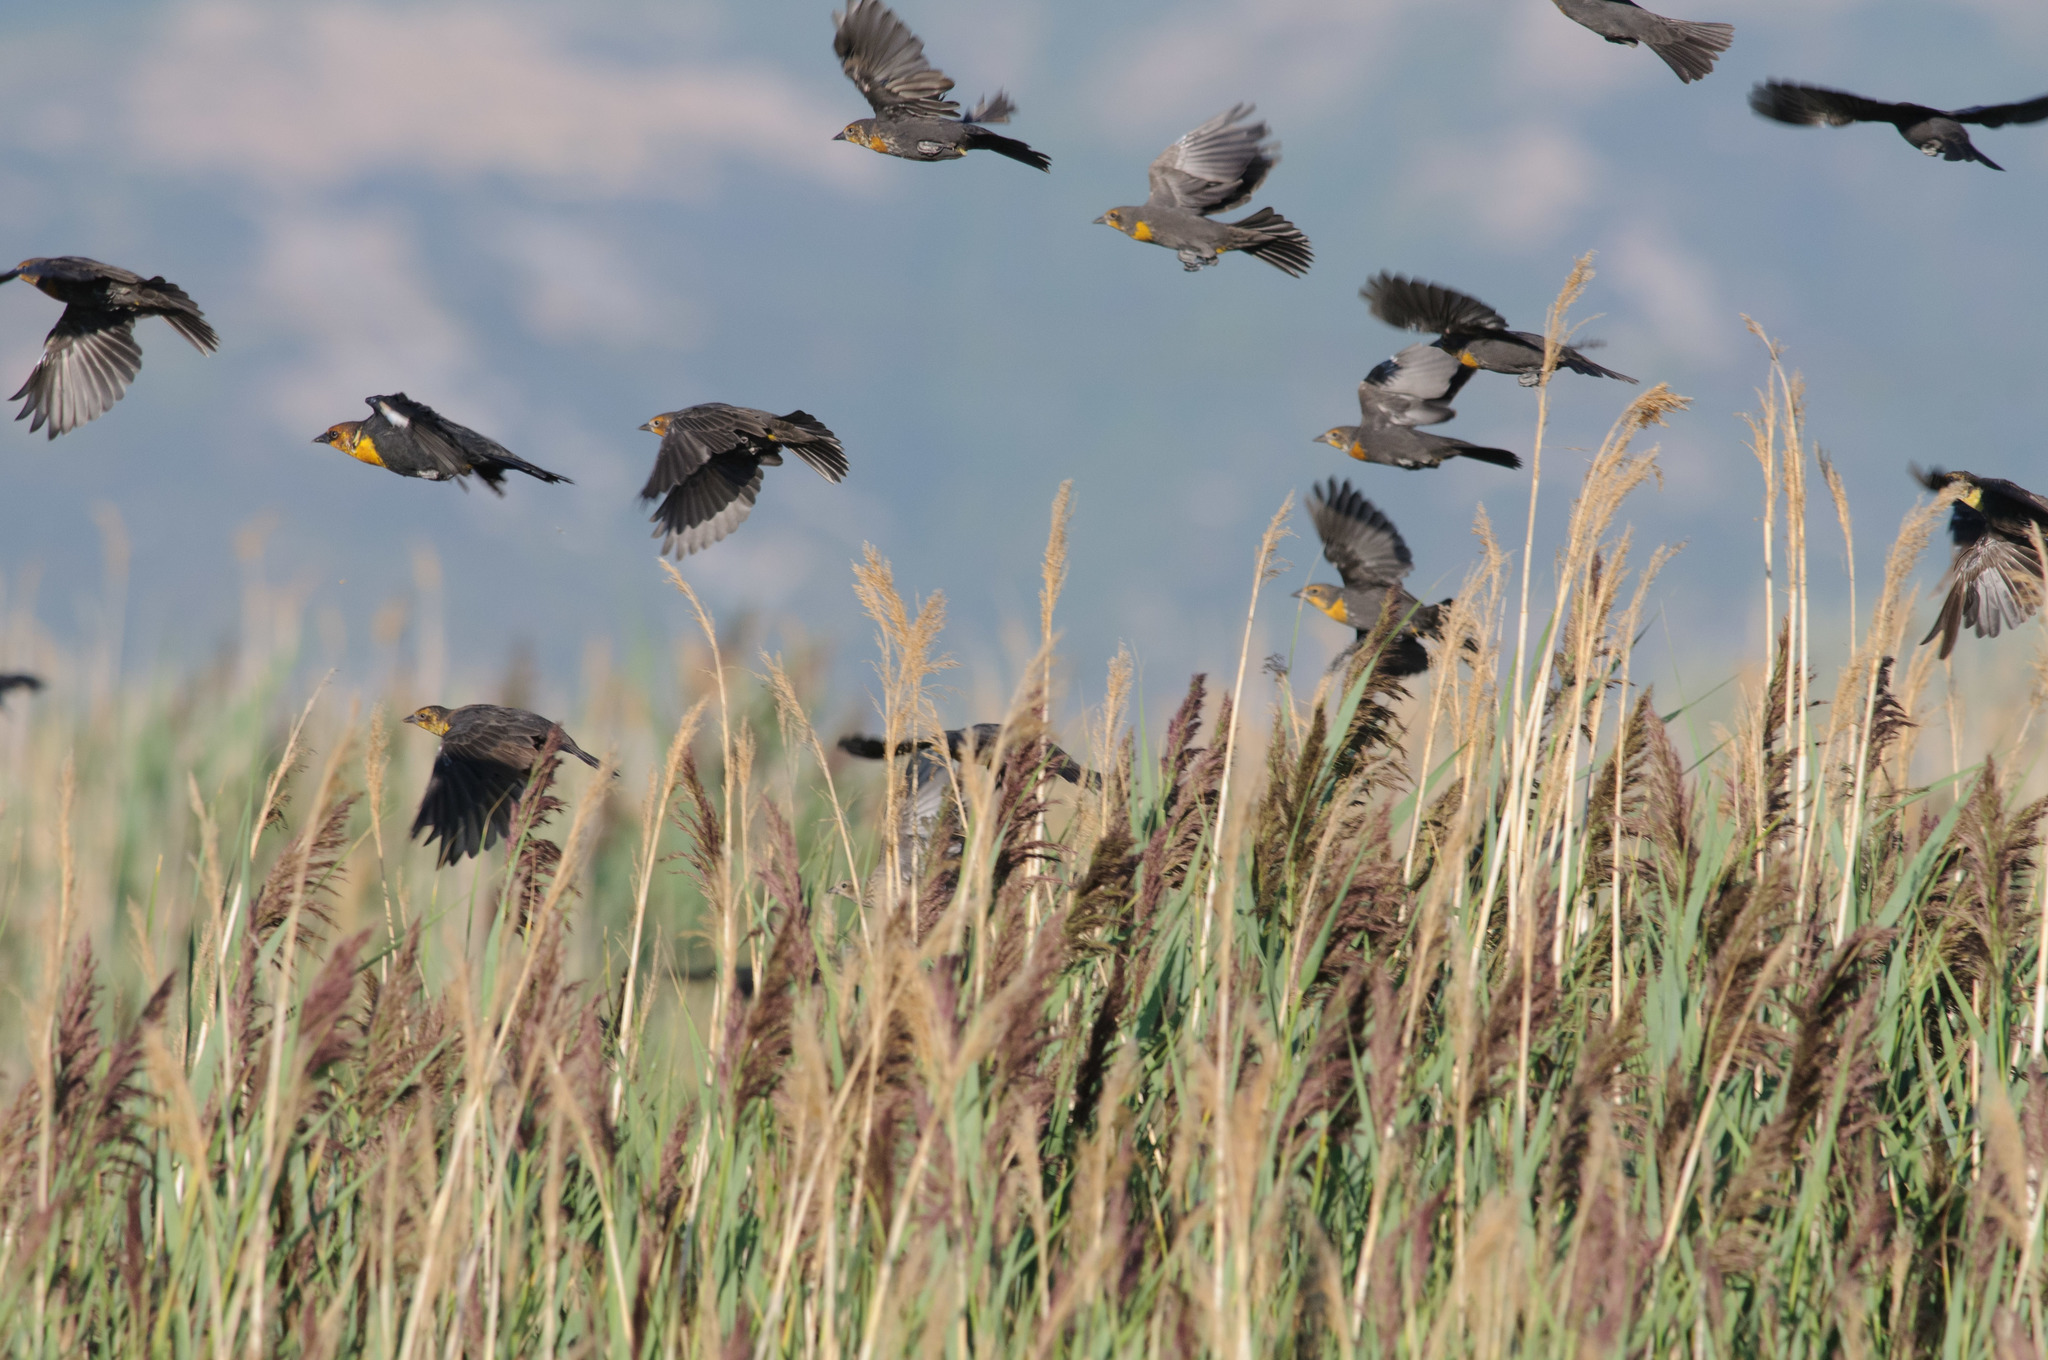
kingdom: Animalia
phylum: Chordata
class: Aves
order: Passeriformes
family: Icteridae
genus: Xanthocephalus
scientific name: Xanthocephalus xanthocephalus
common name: Yellow-headed blackbird
